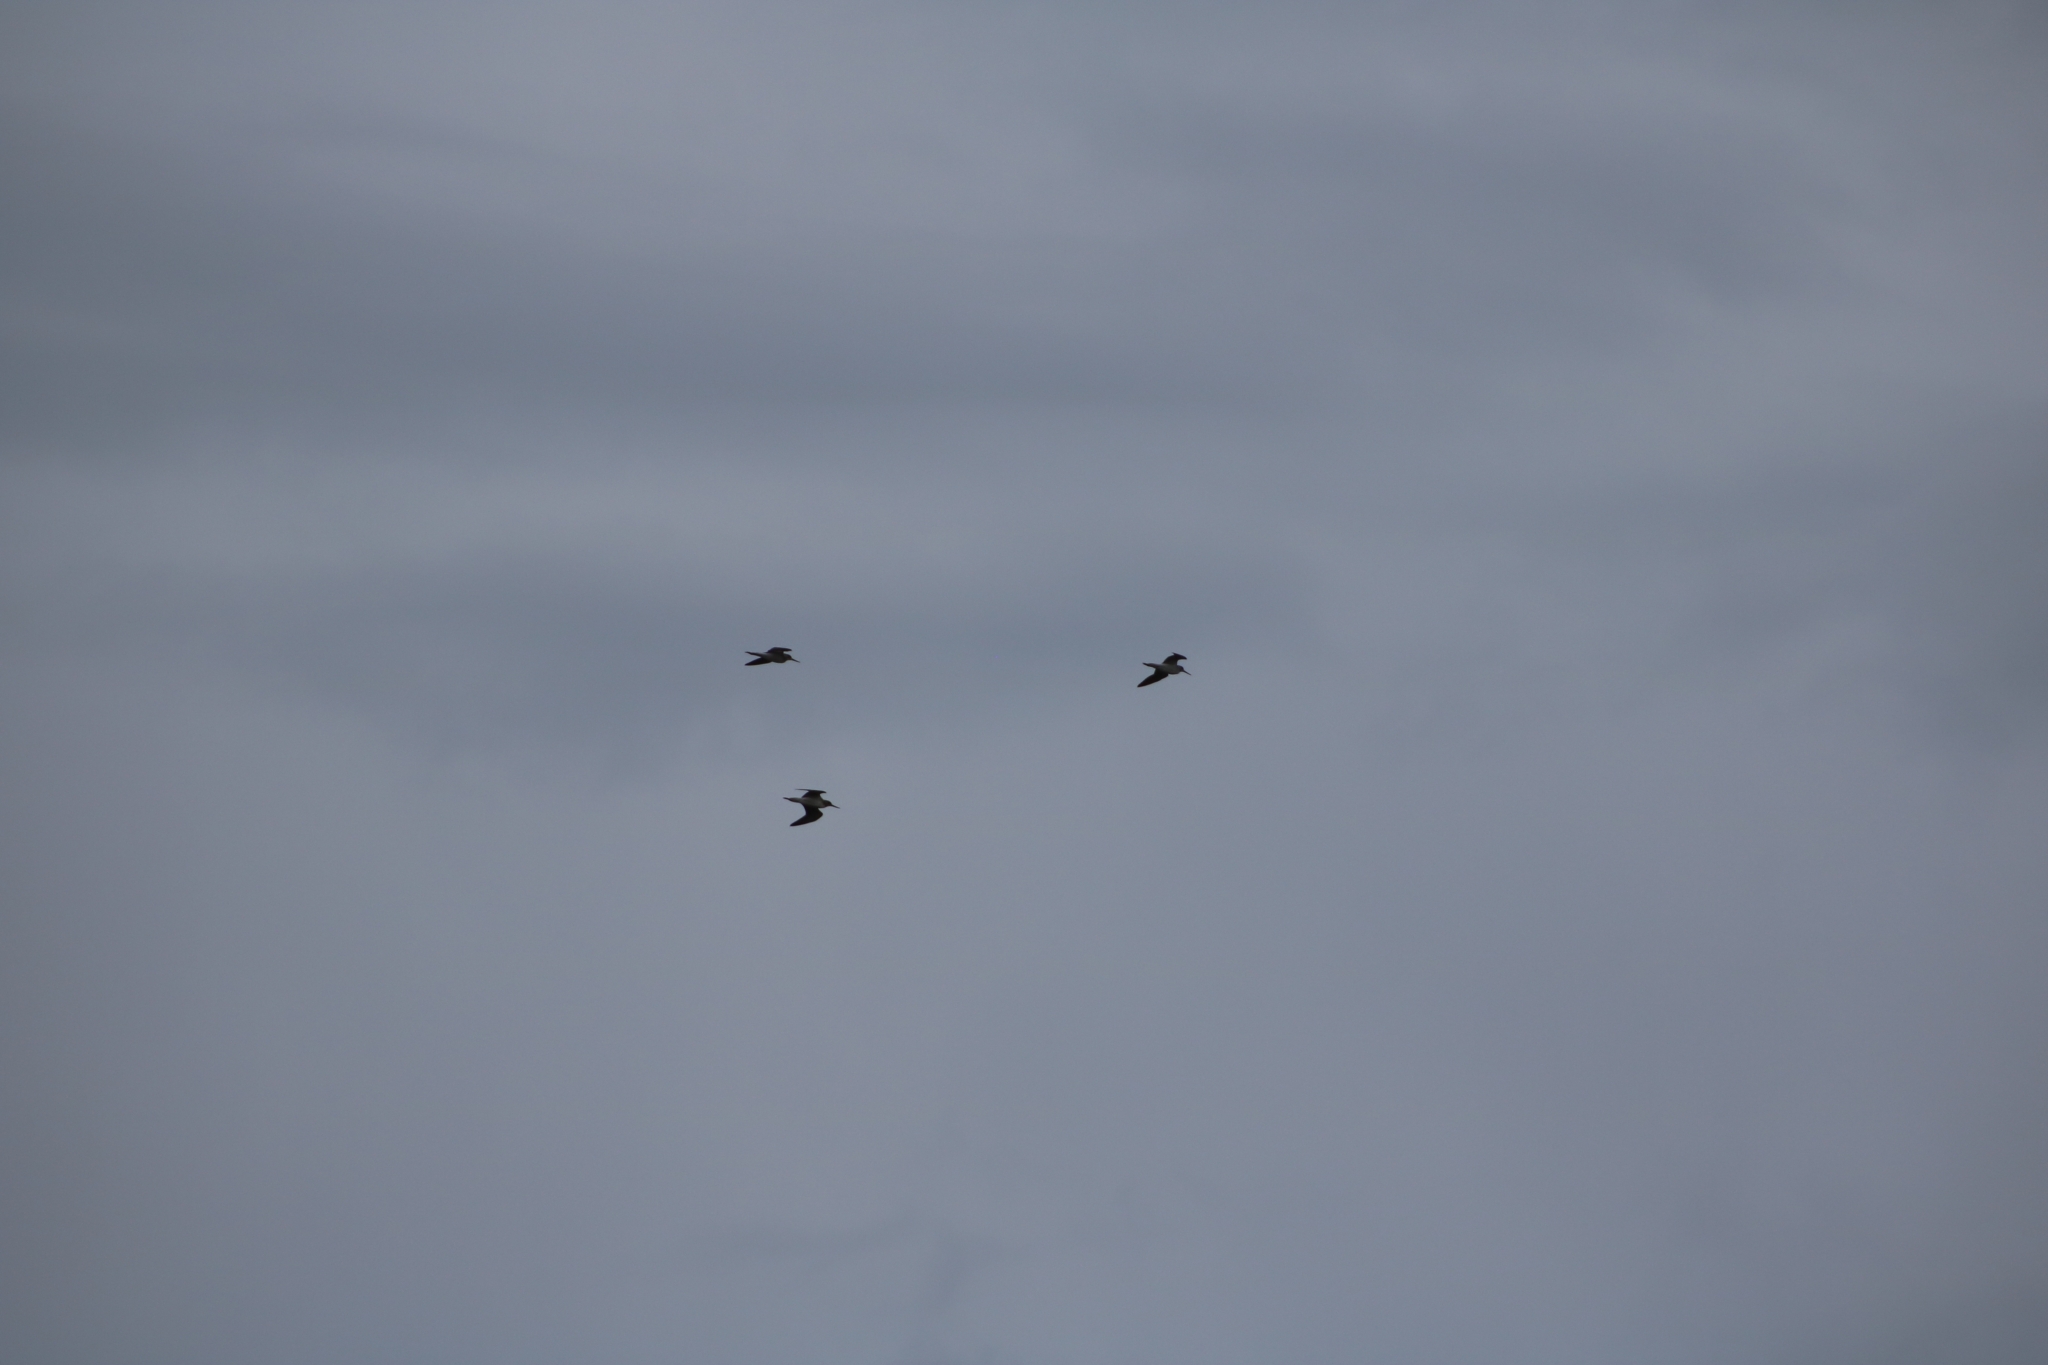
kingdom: Animalia
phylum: Chordata
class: Aves
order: Charadriiformes
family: Scolopacidae
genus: Tringa
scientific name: Tringa nebularia
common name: Common greenshank
